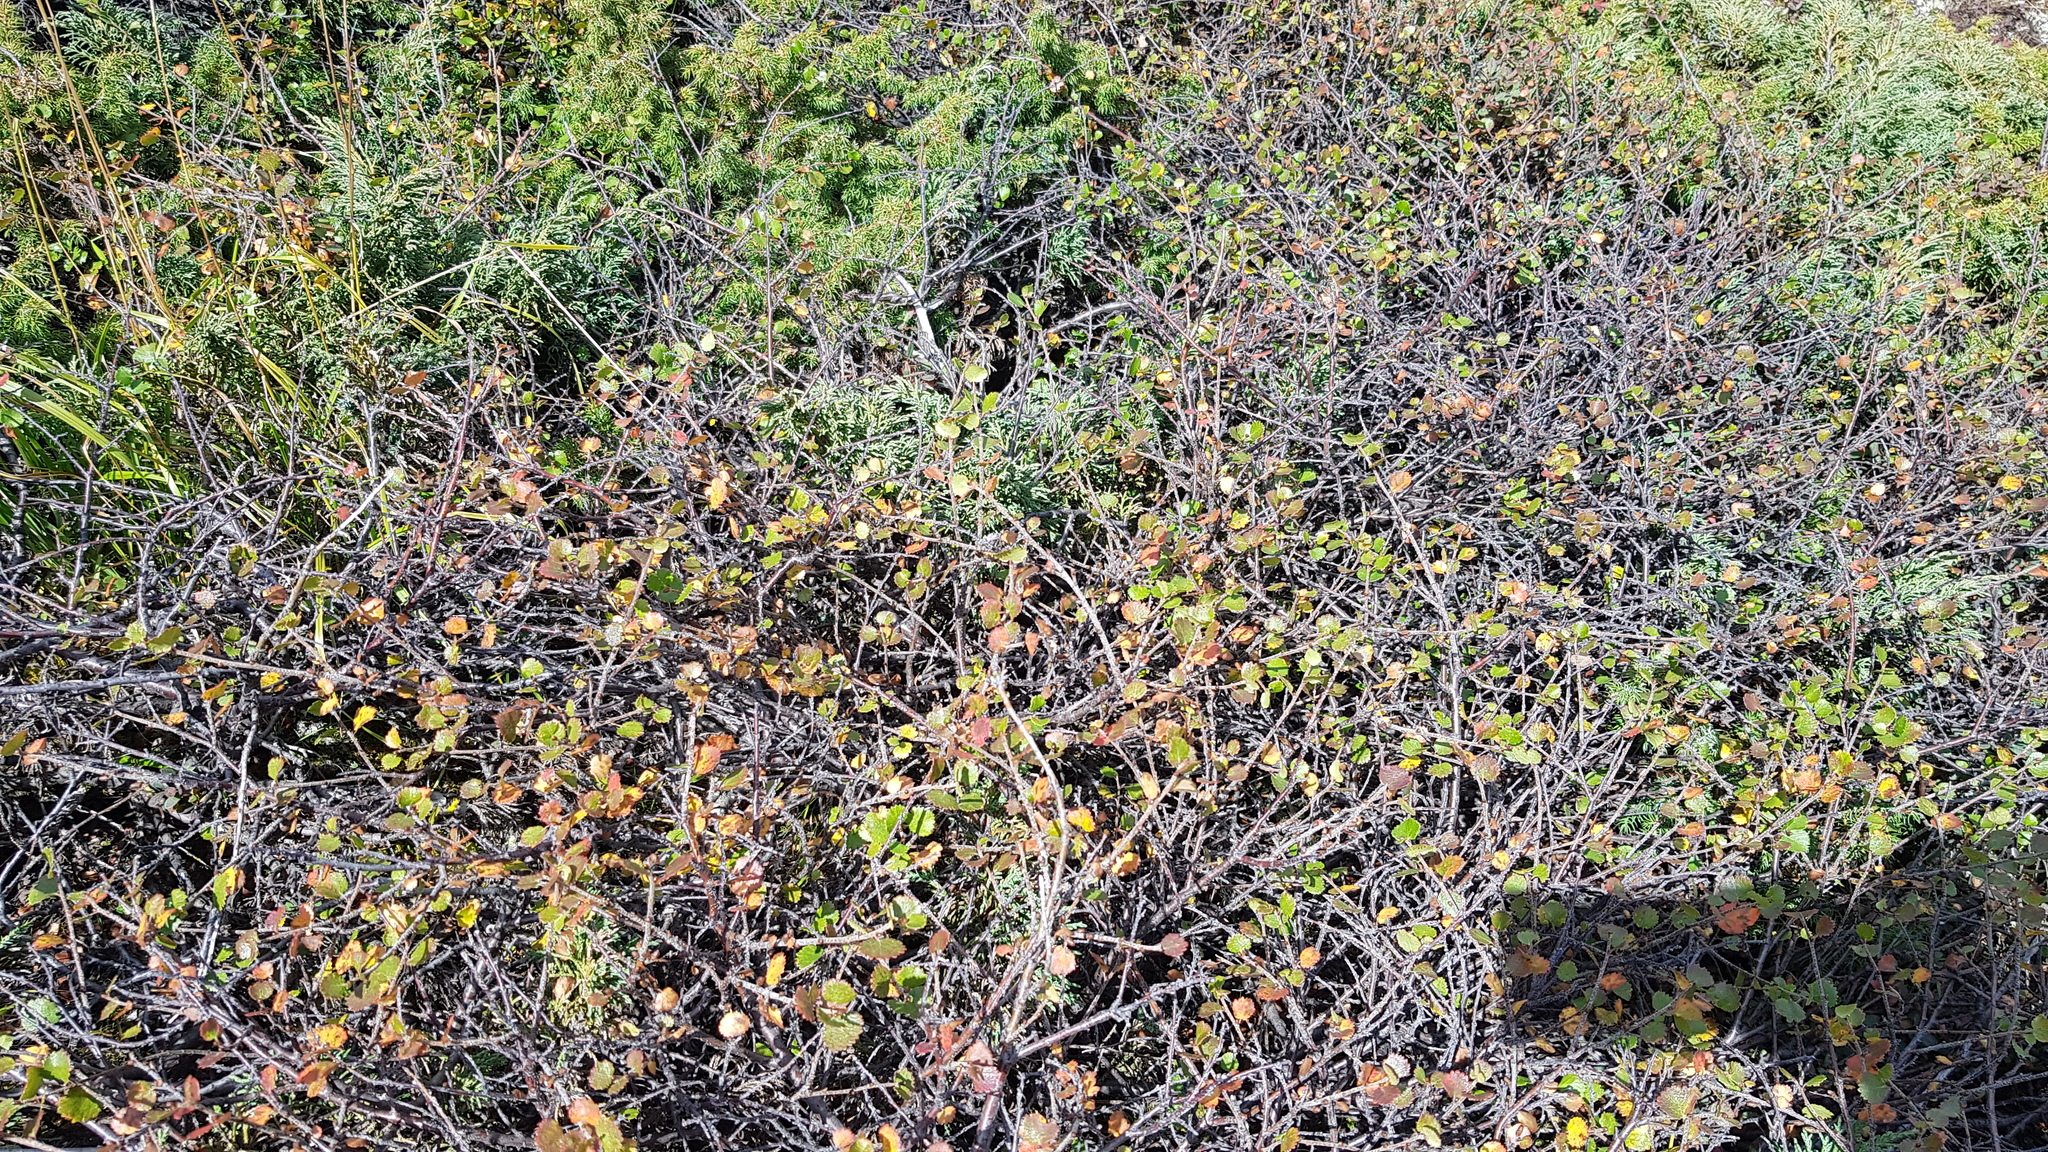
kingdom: Plantae
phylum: Tracheophyta
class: Magnoliopsida
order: Fagales
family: Betulaceae
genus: Betula
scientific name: Betula nana
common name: Arctic dwarf birch
